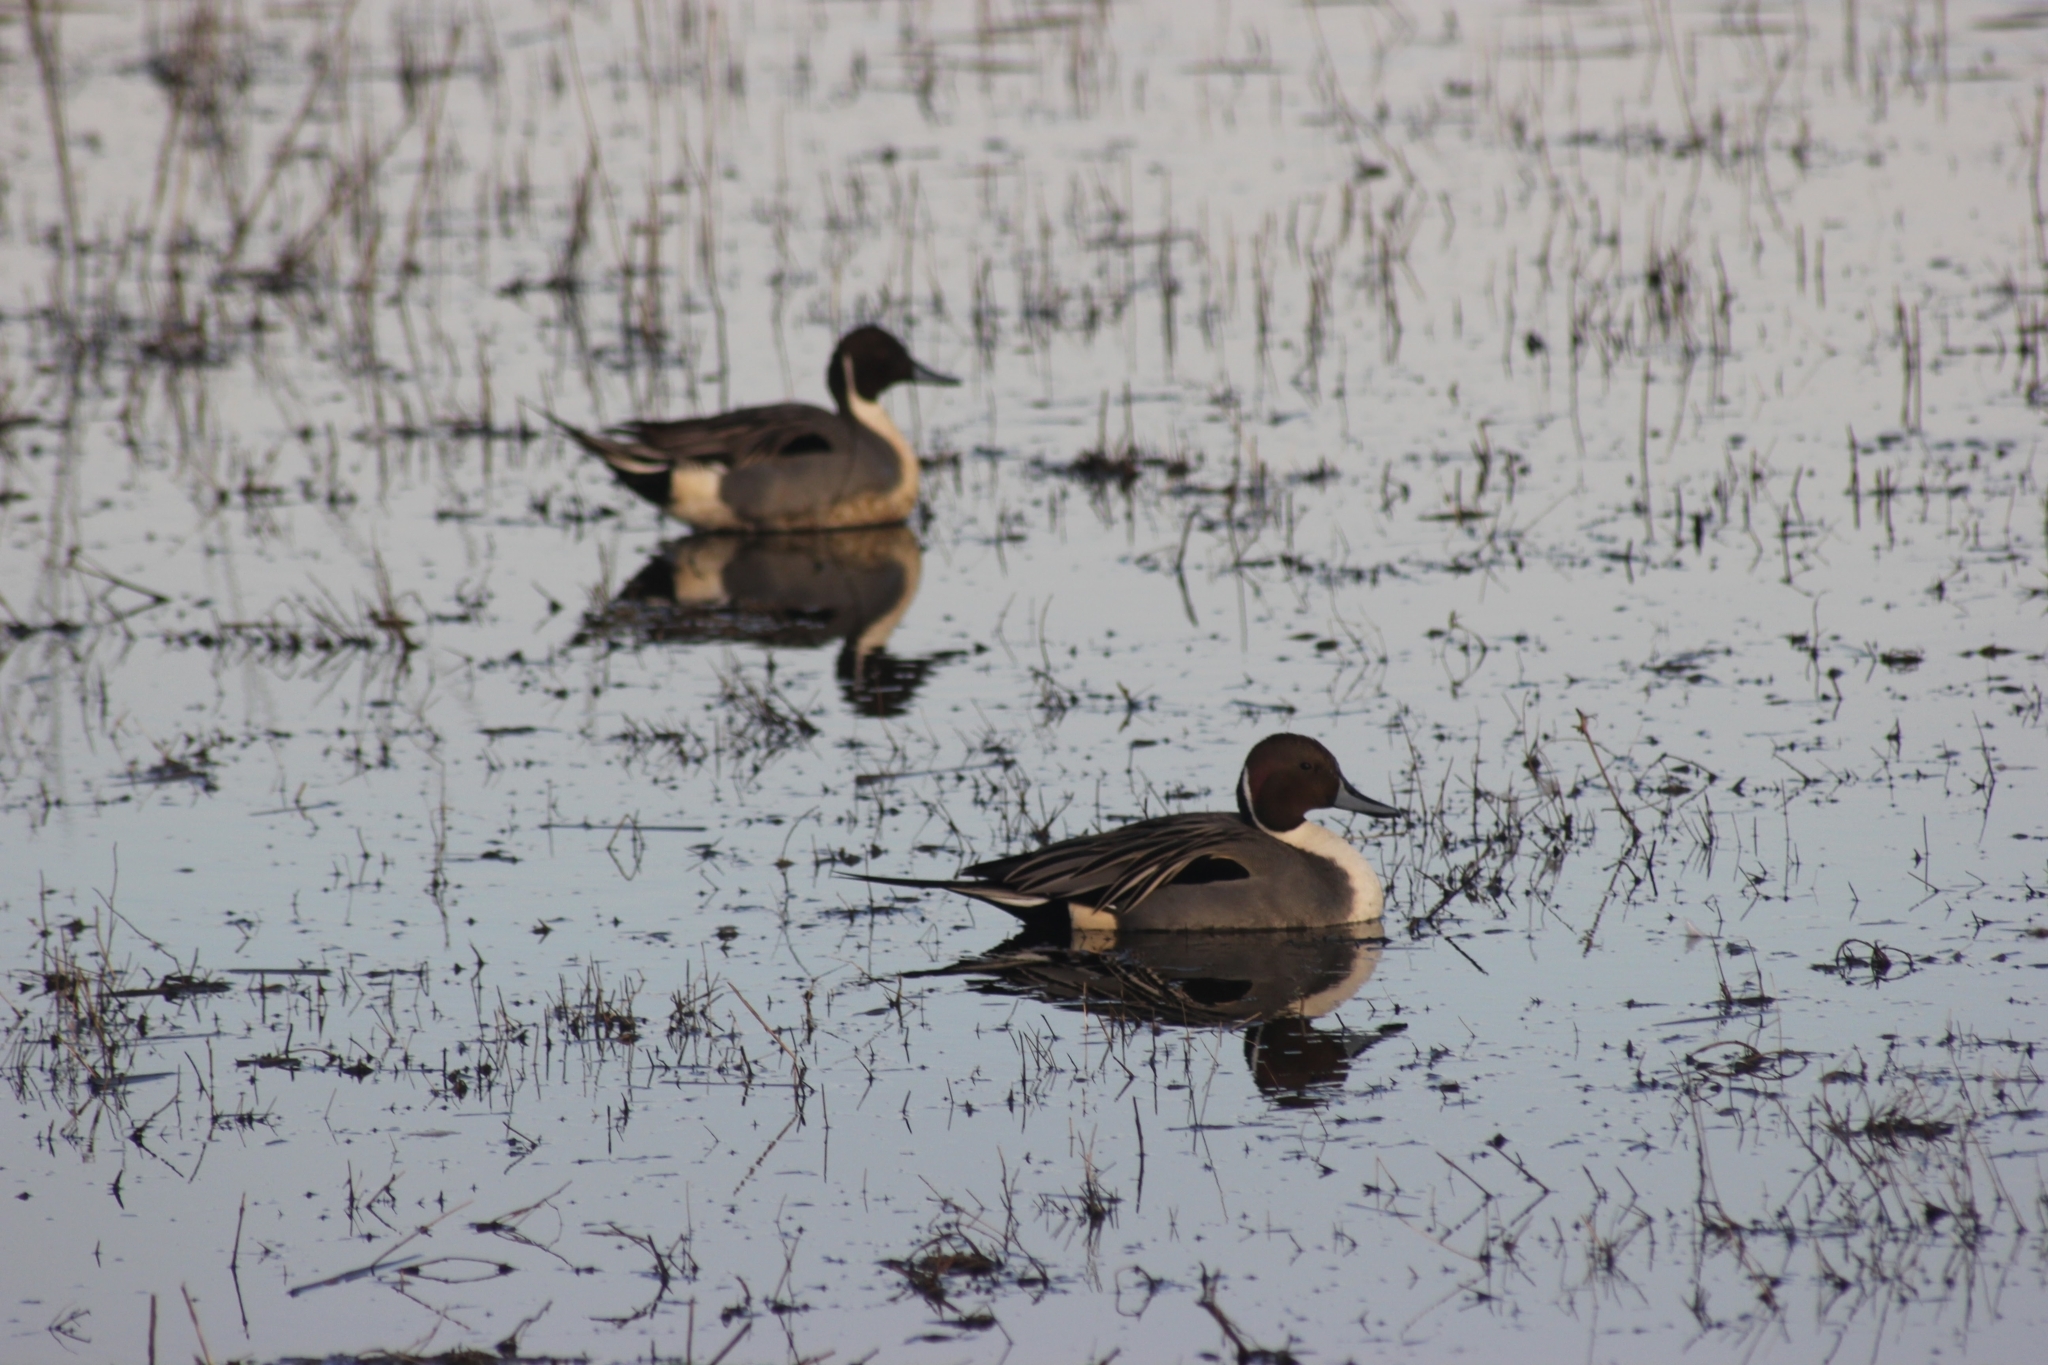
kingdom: Animalia
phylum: Chordata
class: Aves
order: Anseriformes
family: Anatidae
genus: Anas
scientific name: Anas acuta
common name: Northern pintail
